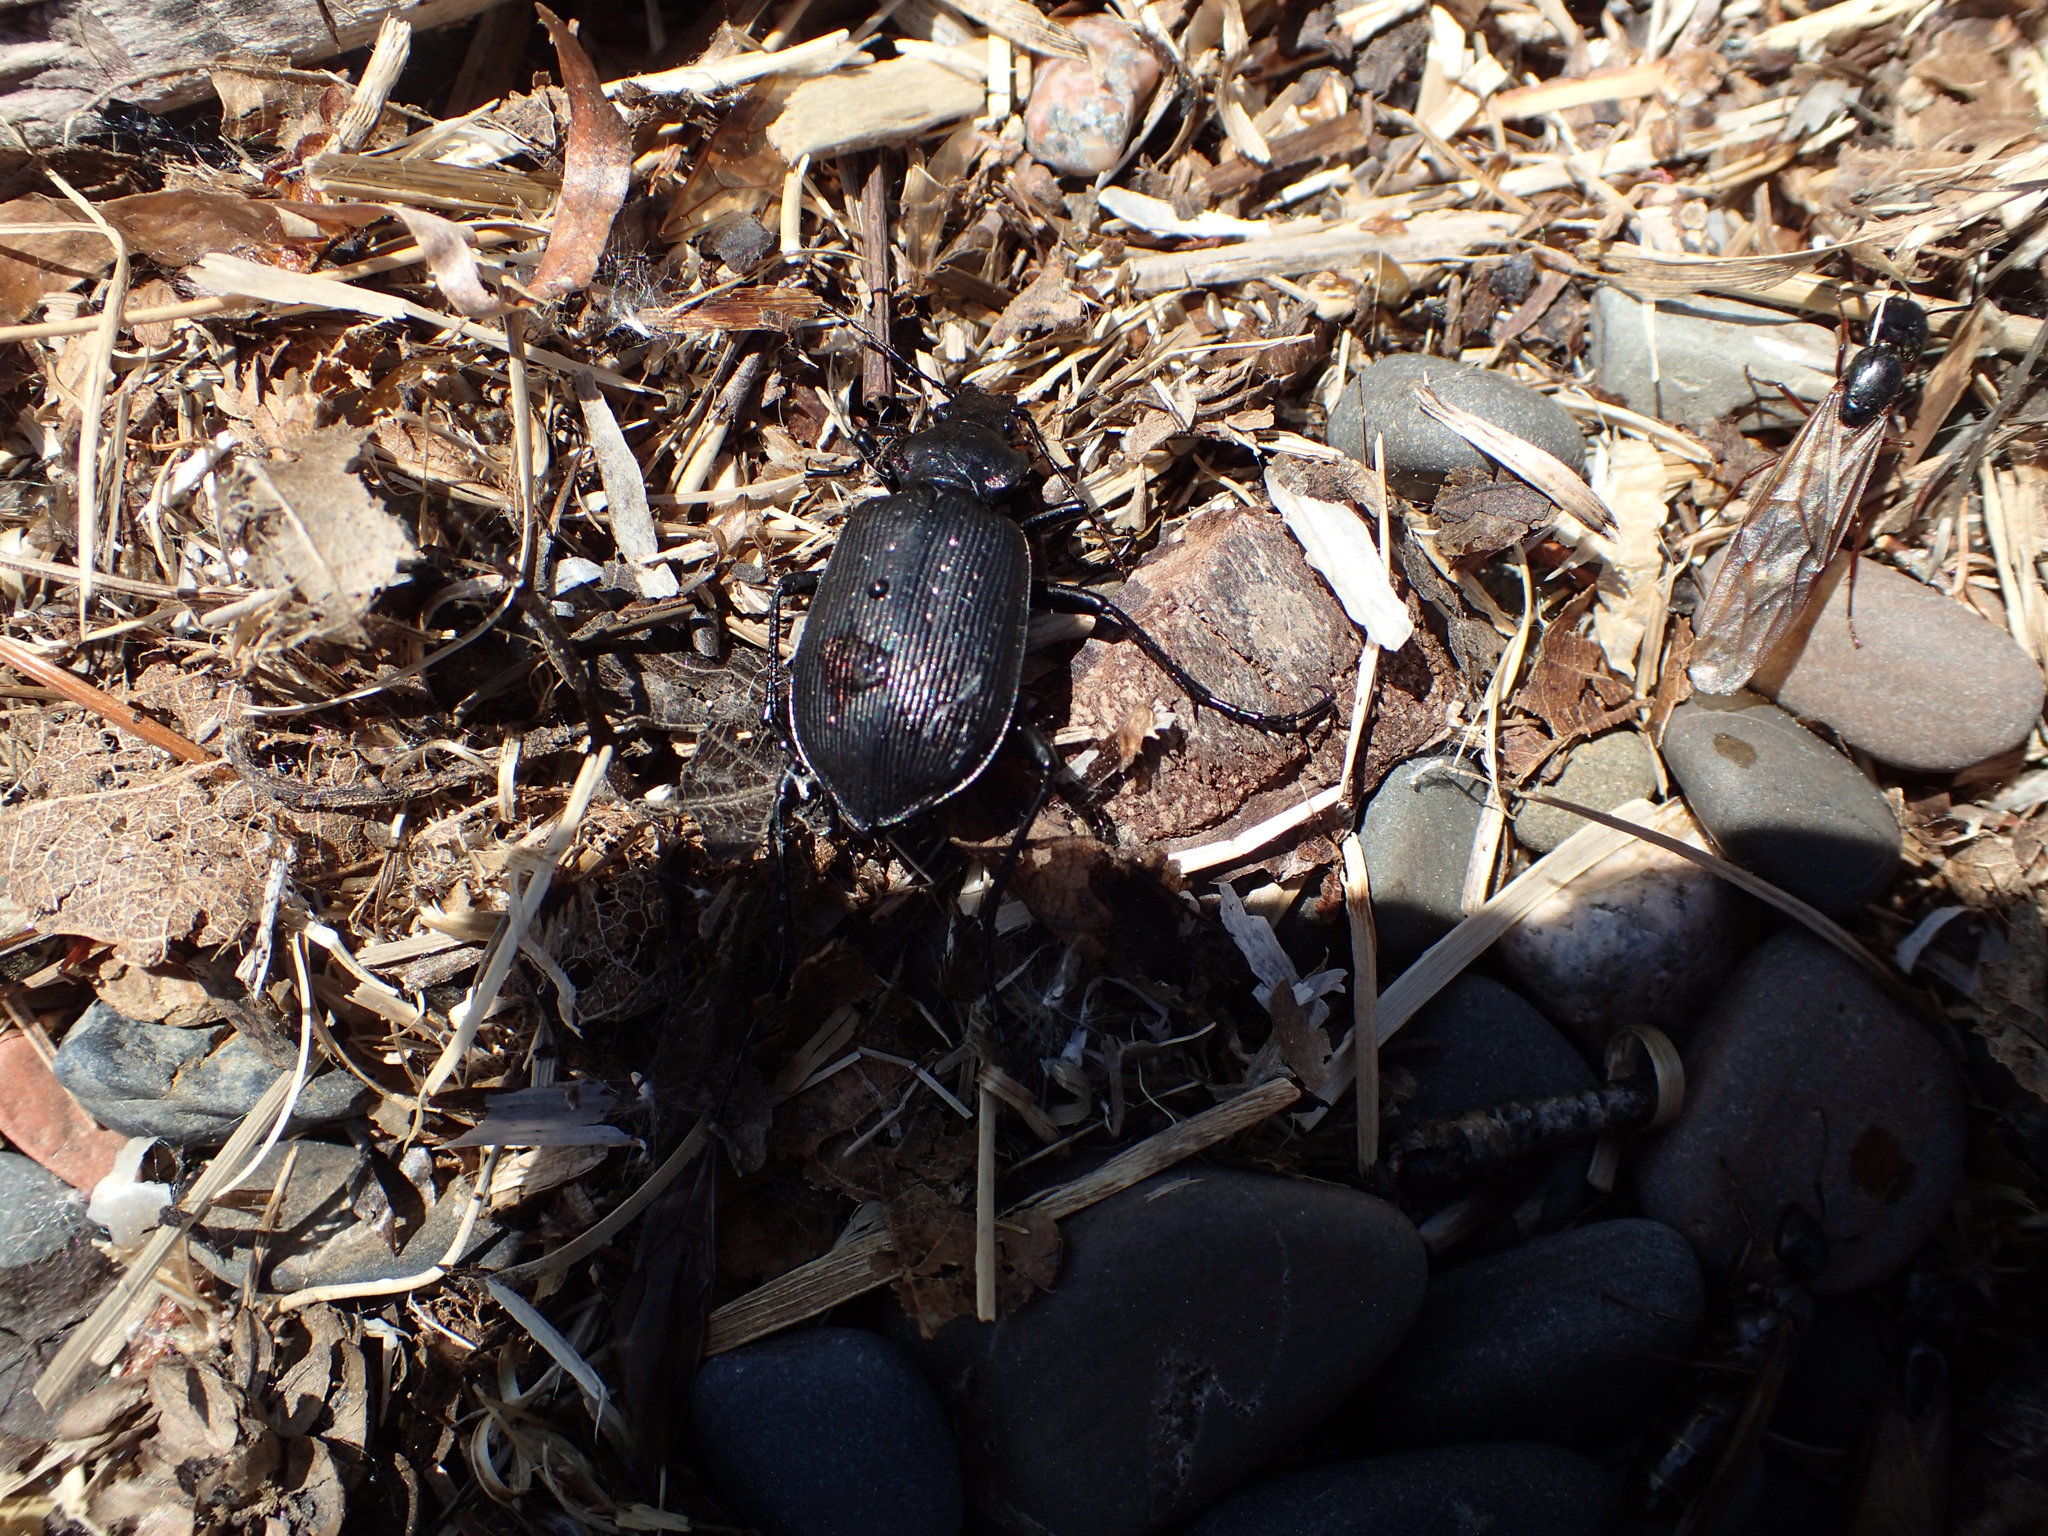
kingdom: Animalia
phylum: Arthropoda
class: Insecta
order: Coleoptera
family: Carabidae
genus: Calosoma
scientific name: Calosoma sayi
